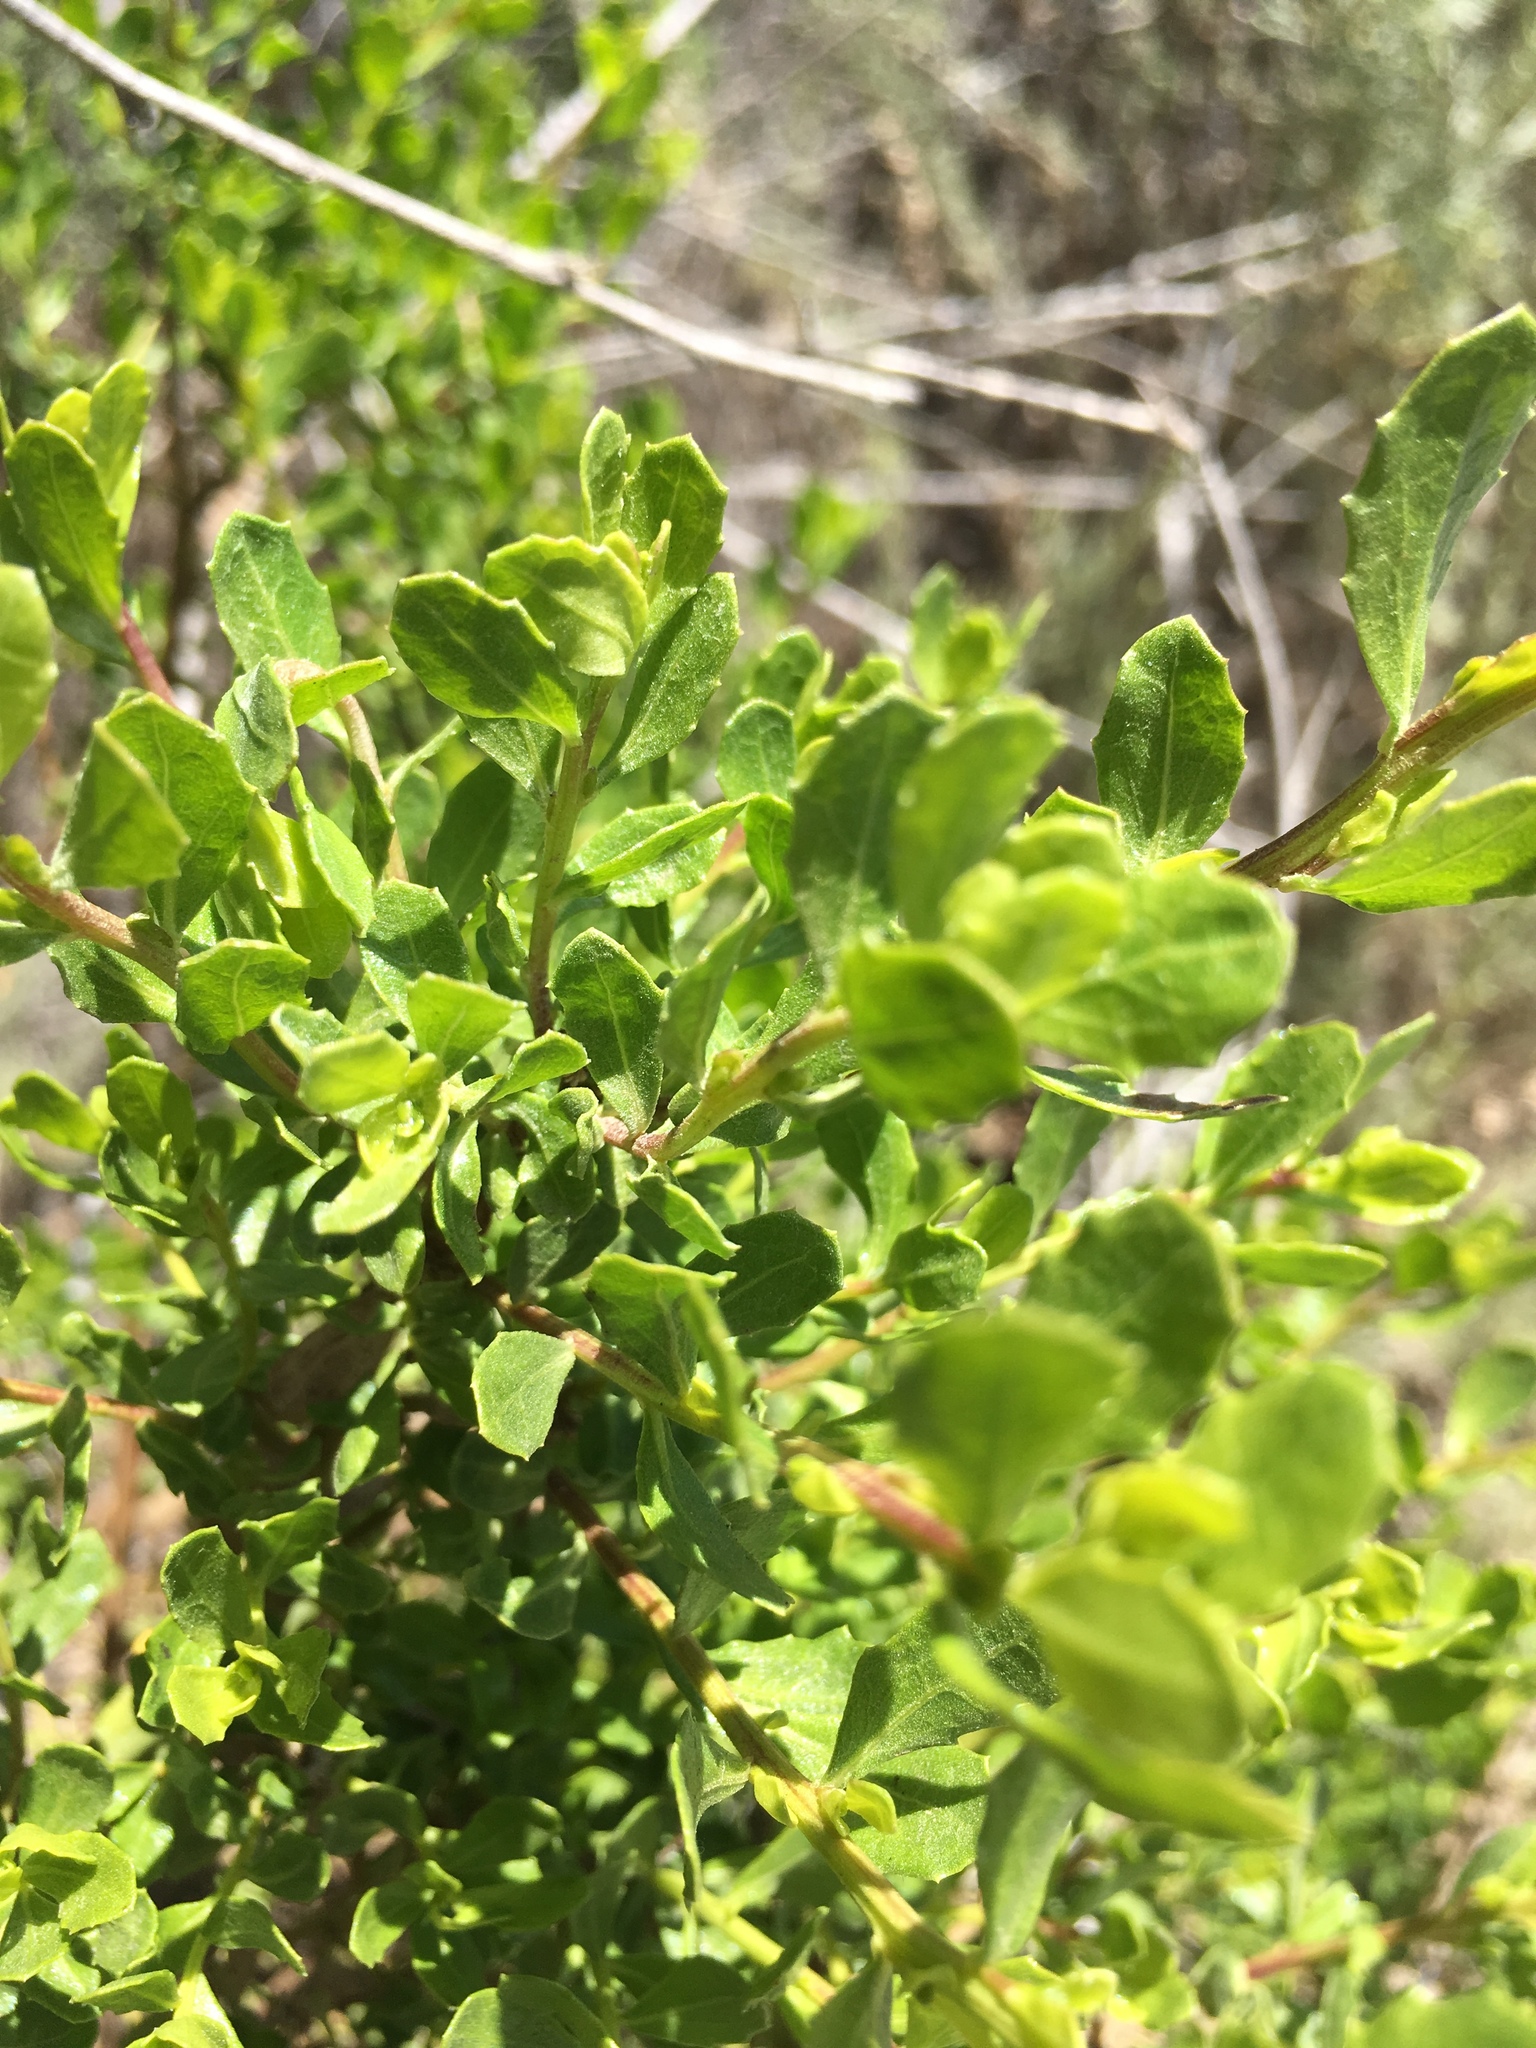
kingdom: Plantae
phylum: Tracheophyta
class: Magnoliopsida
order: Asterales
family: Asteraceae
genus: Baccharis
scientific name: Baccharis pilularis
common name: Coyotebrush
